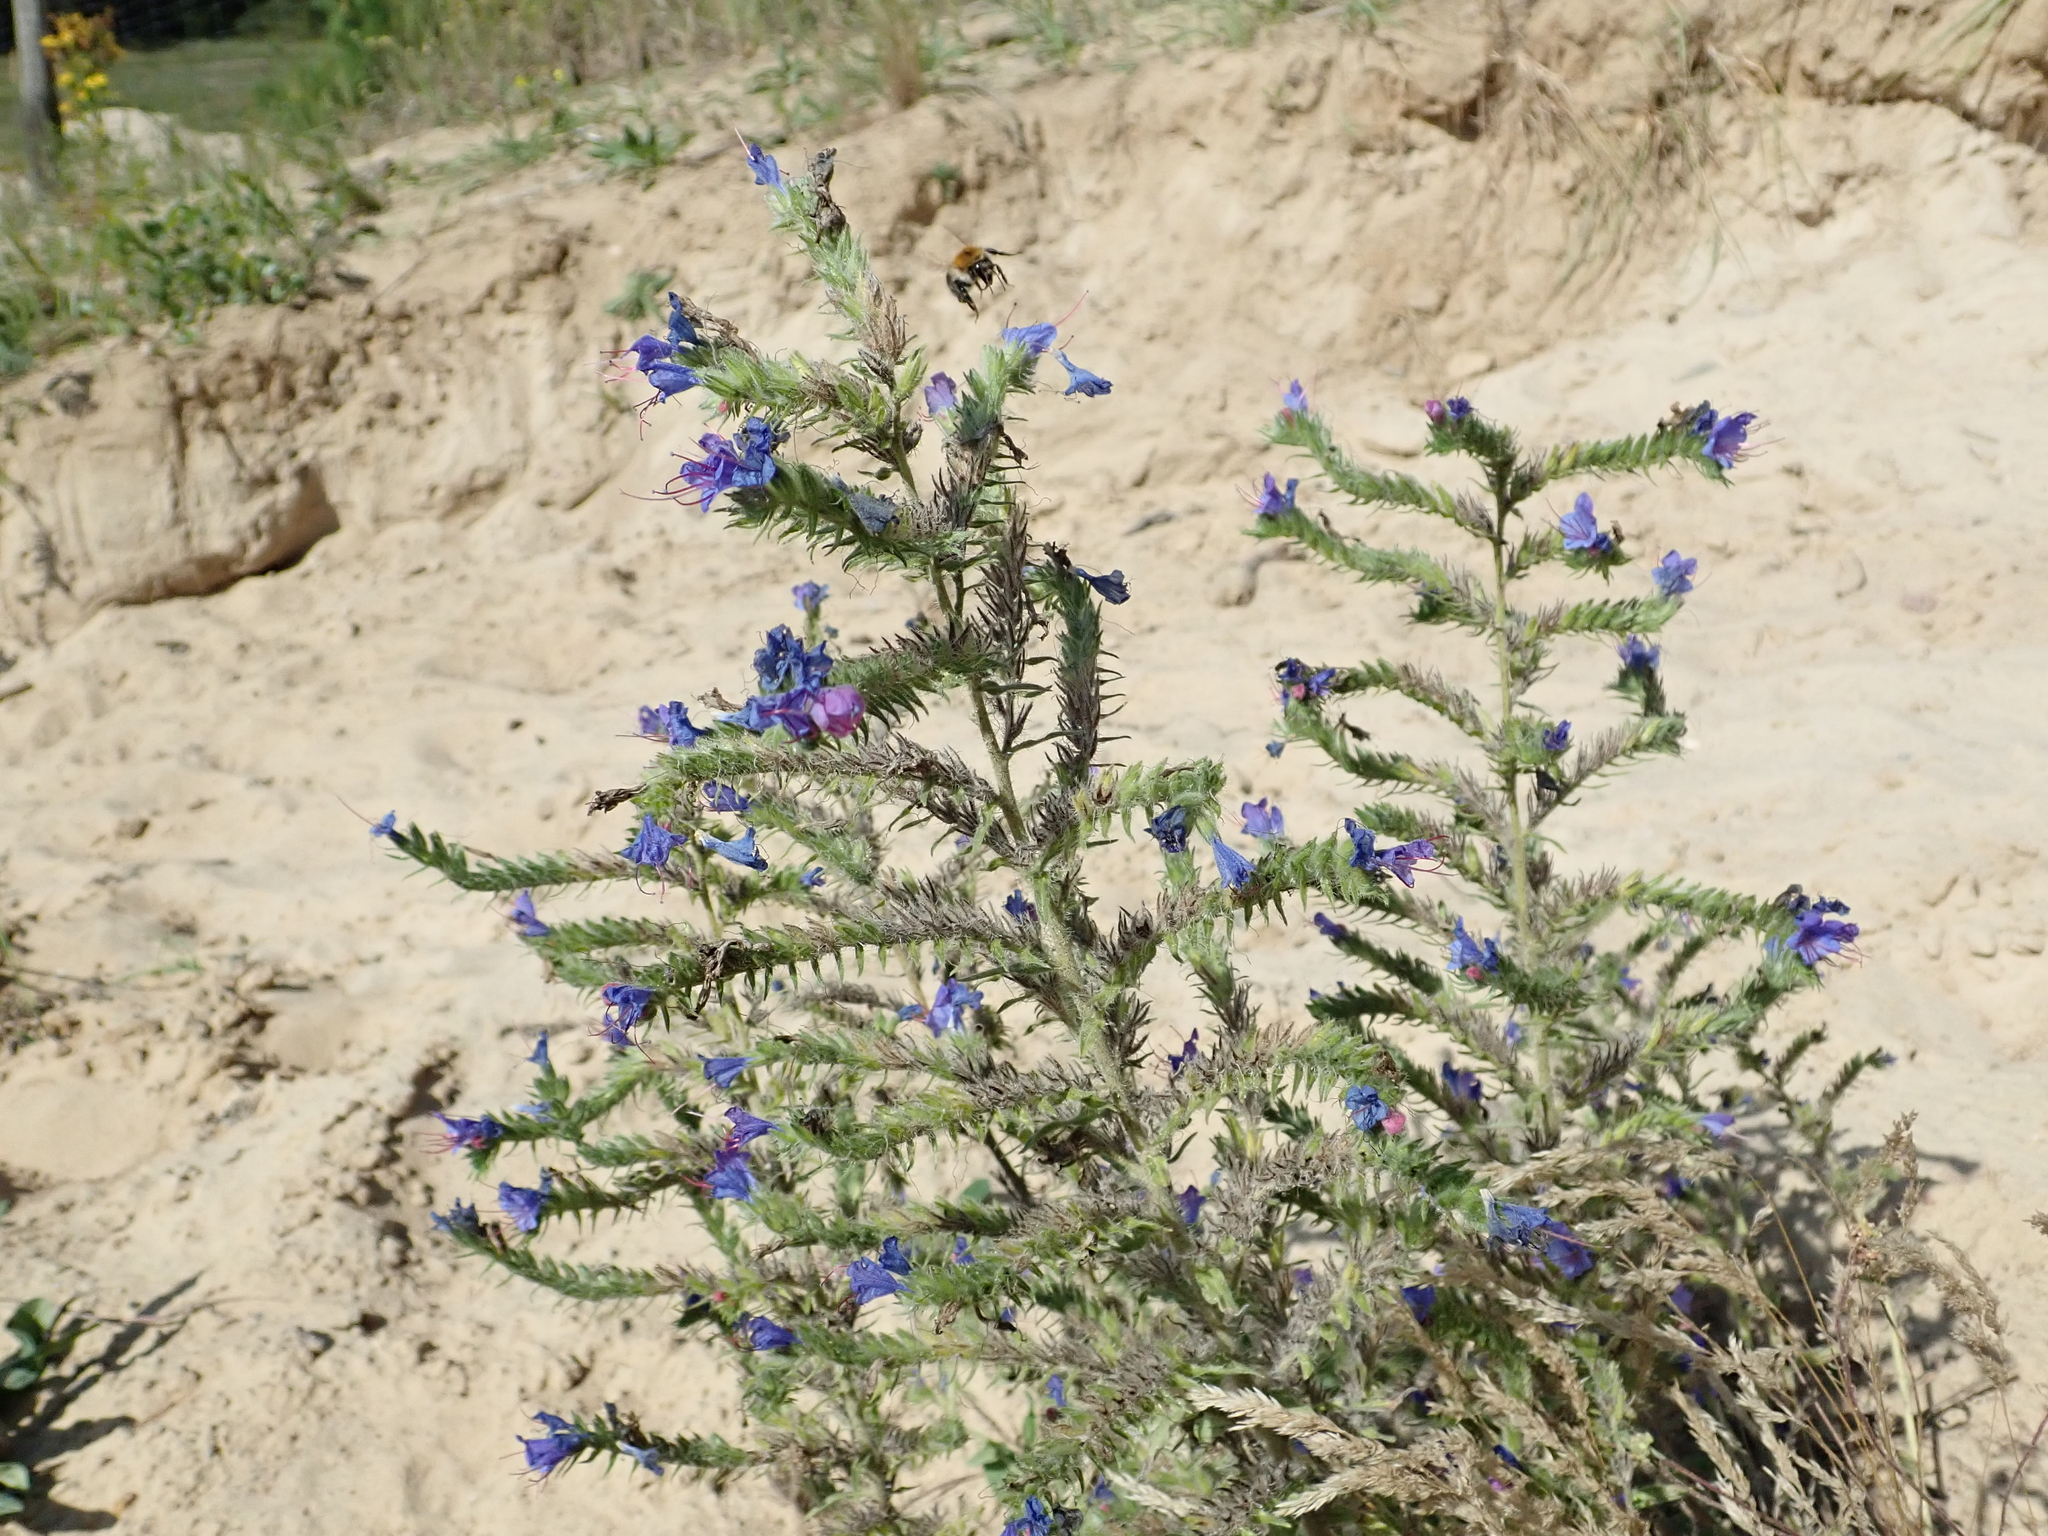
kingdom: Plantae
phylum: Tracheophyta
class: Magnoliopsida
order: Boraginales
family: Boraginaceae
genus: Echium
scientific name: Echium vulgare
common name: Common viper's bugloss
